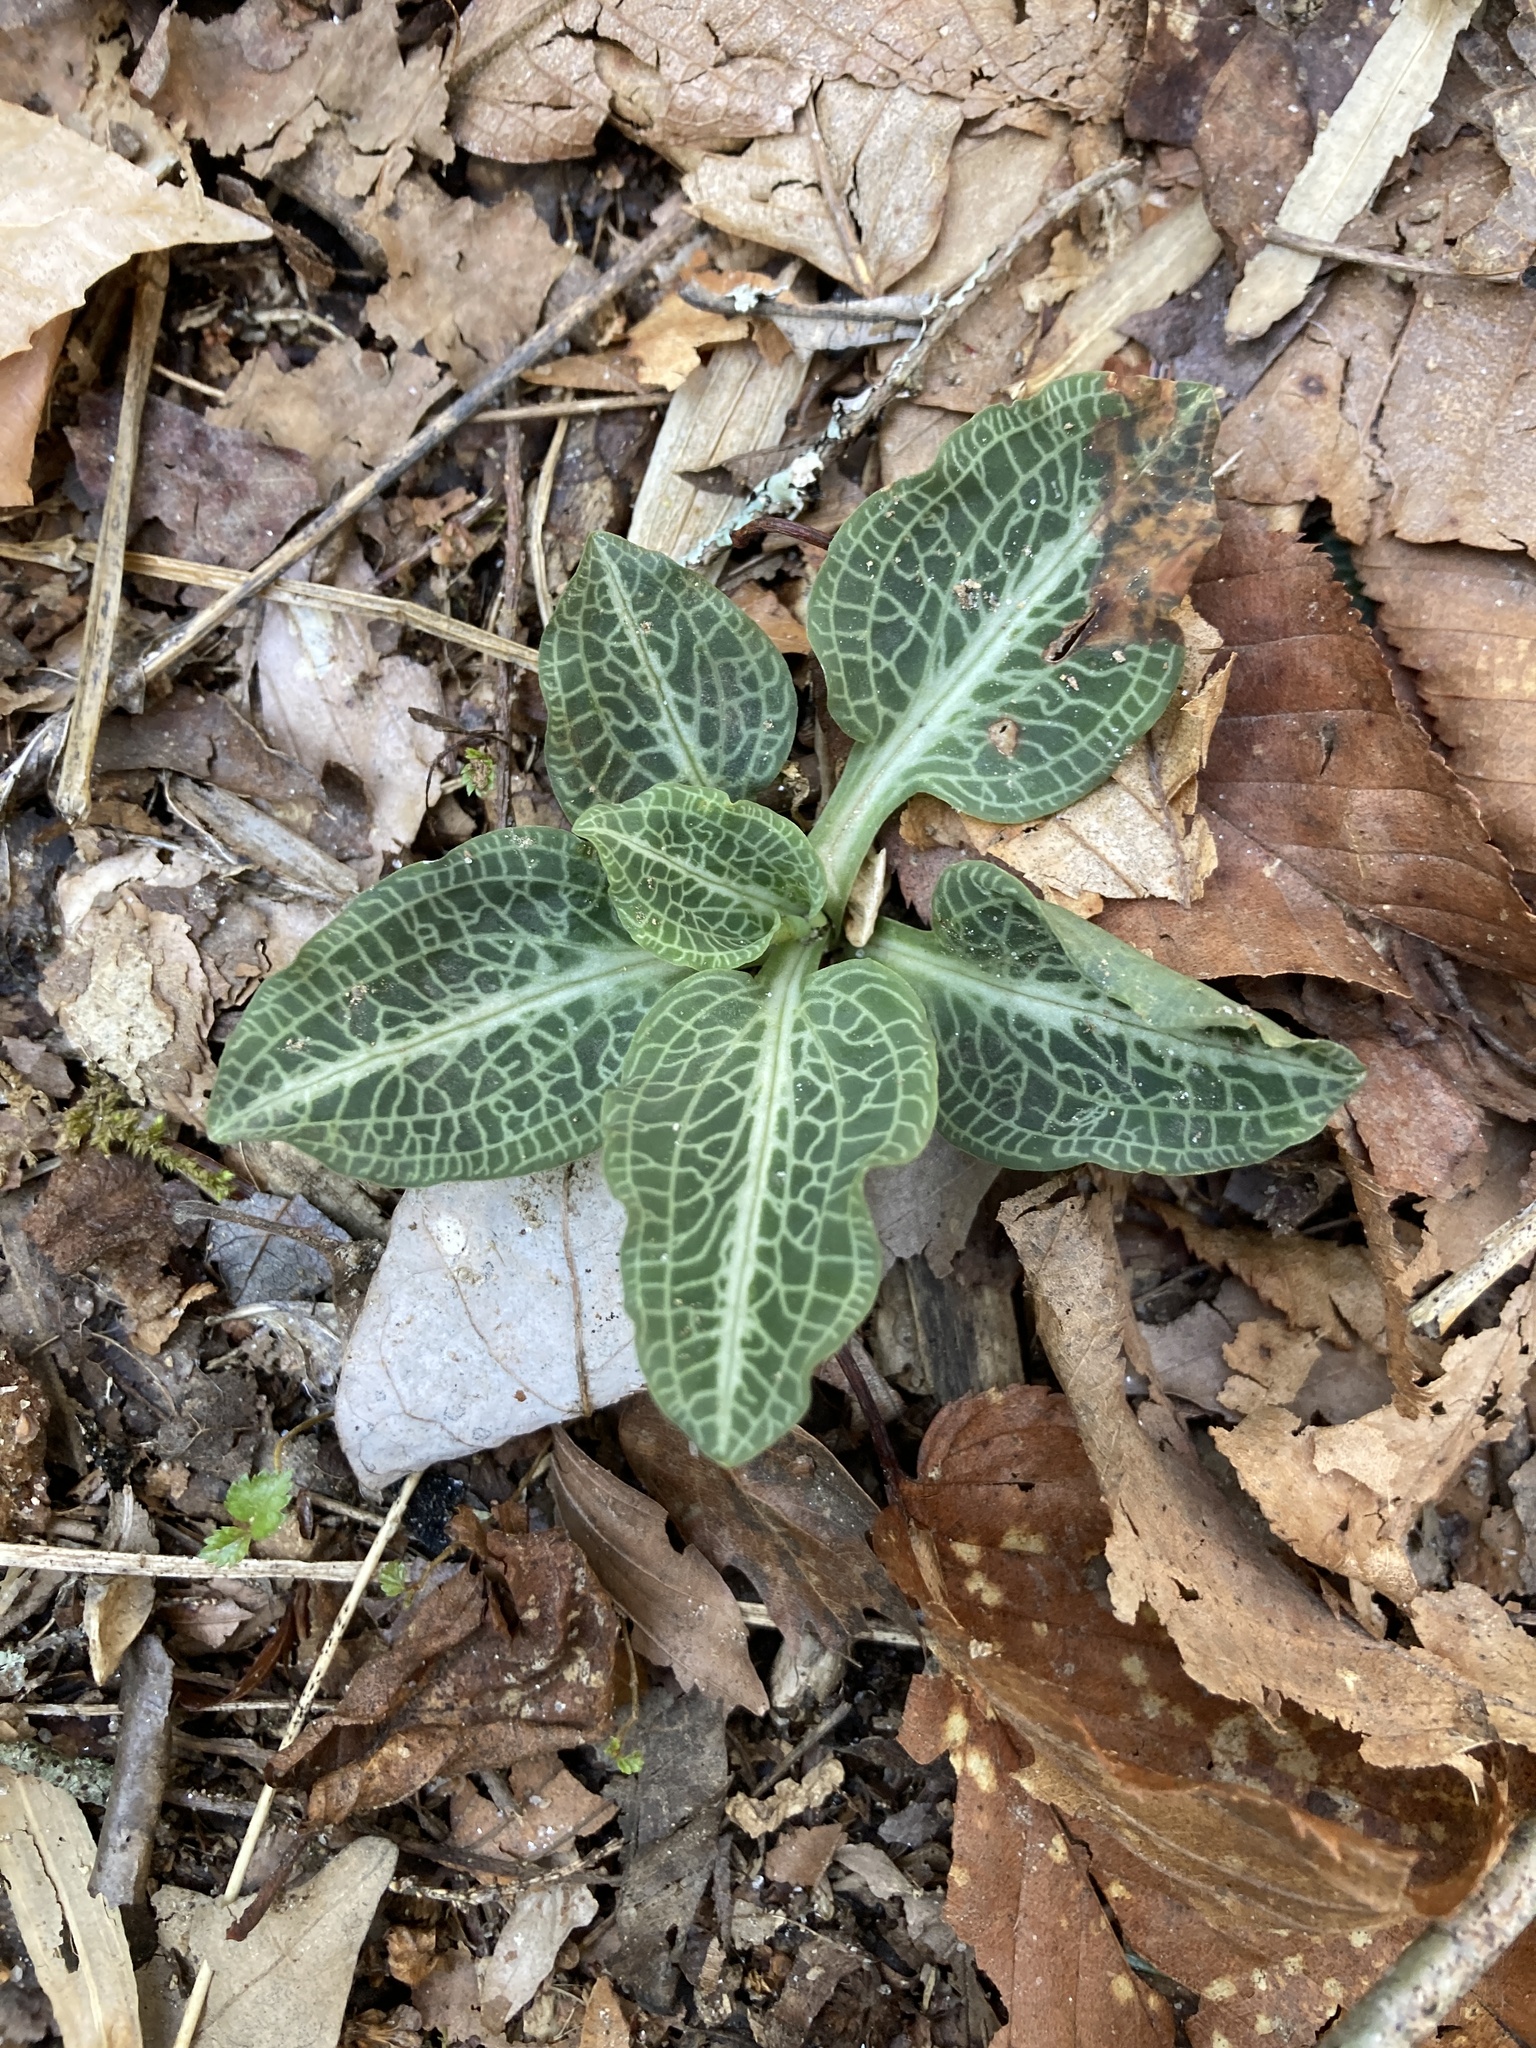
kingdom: Plantae
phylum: Tracheophyta
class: Liliopsida
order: Asparagales
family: Orchidaceae
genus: Goodyera
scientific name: Goodyera pubescens
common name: Downy rattlesnake-plantain
